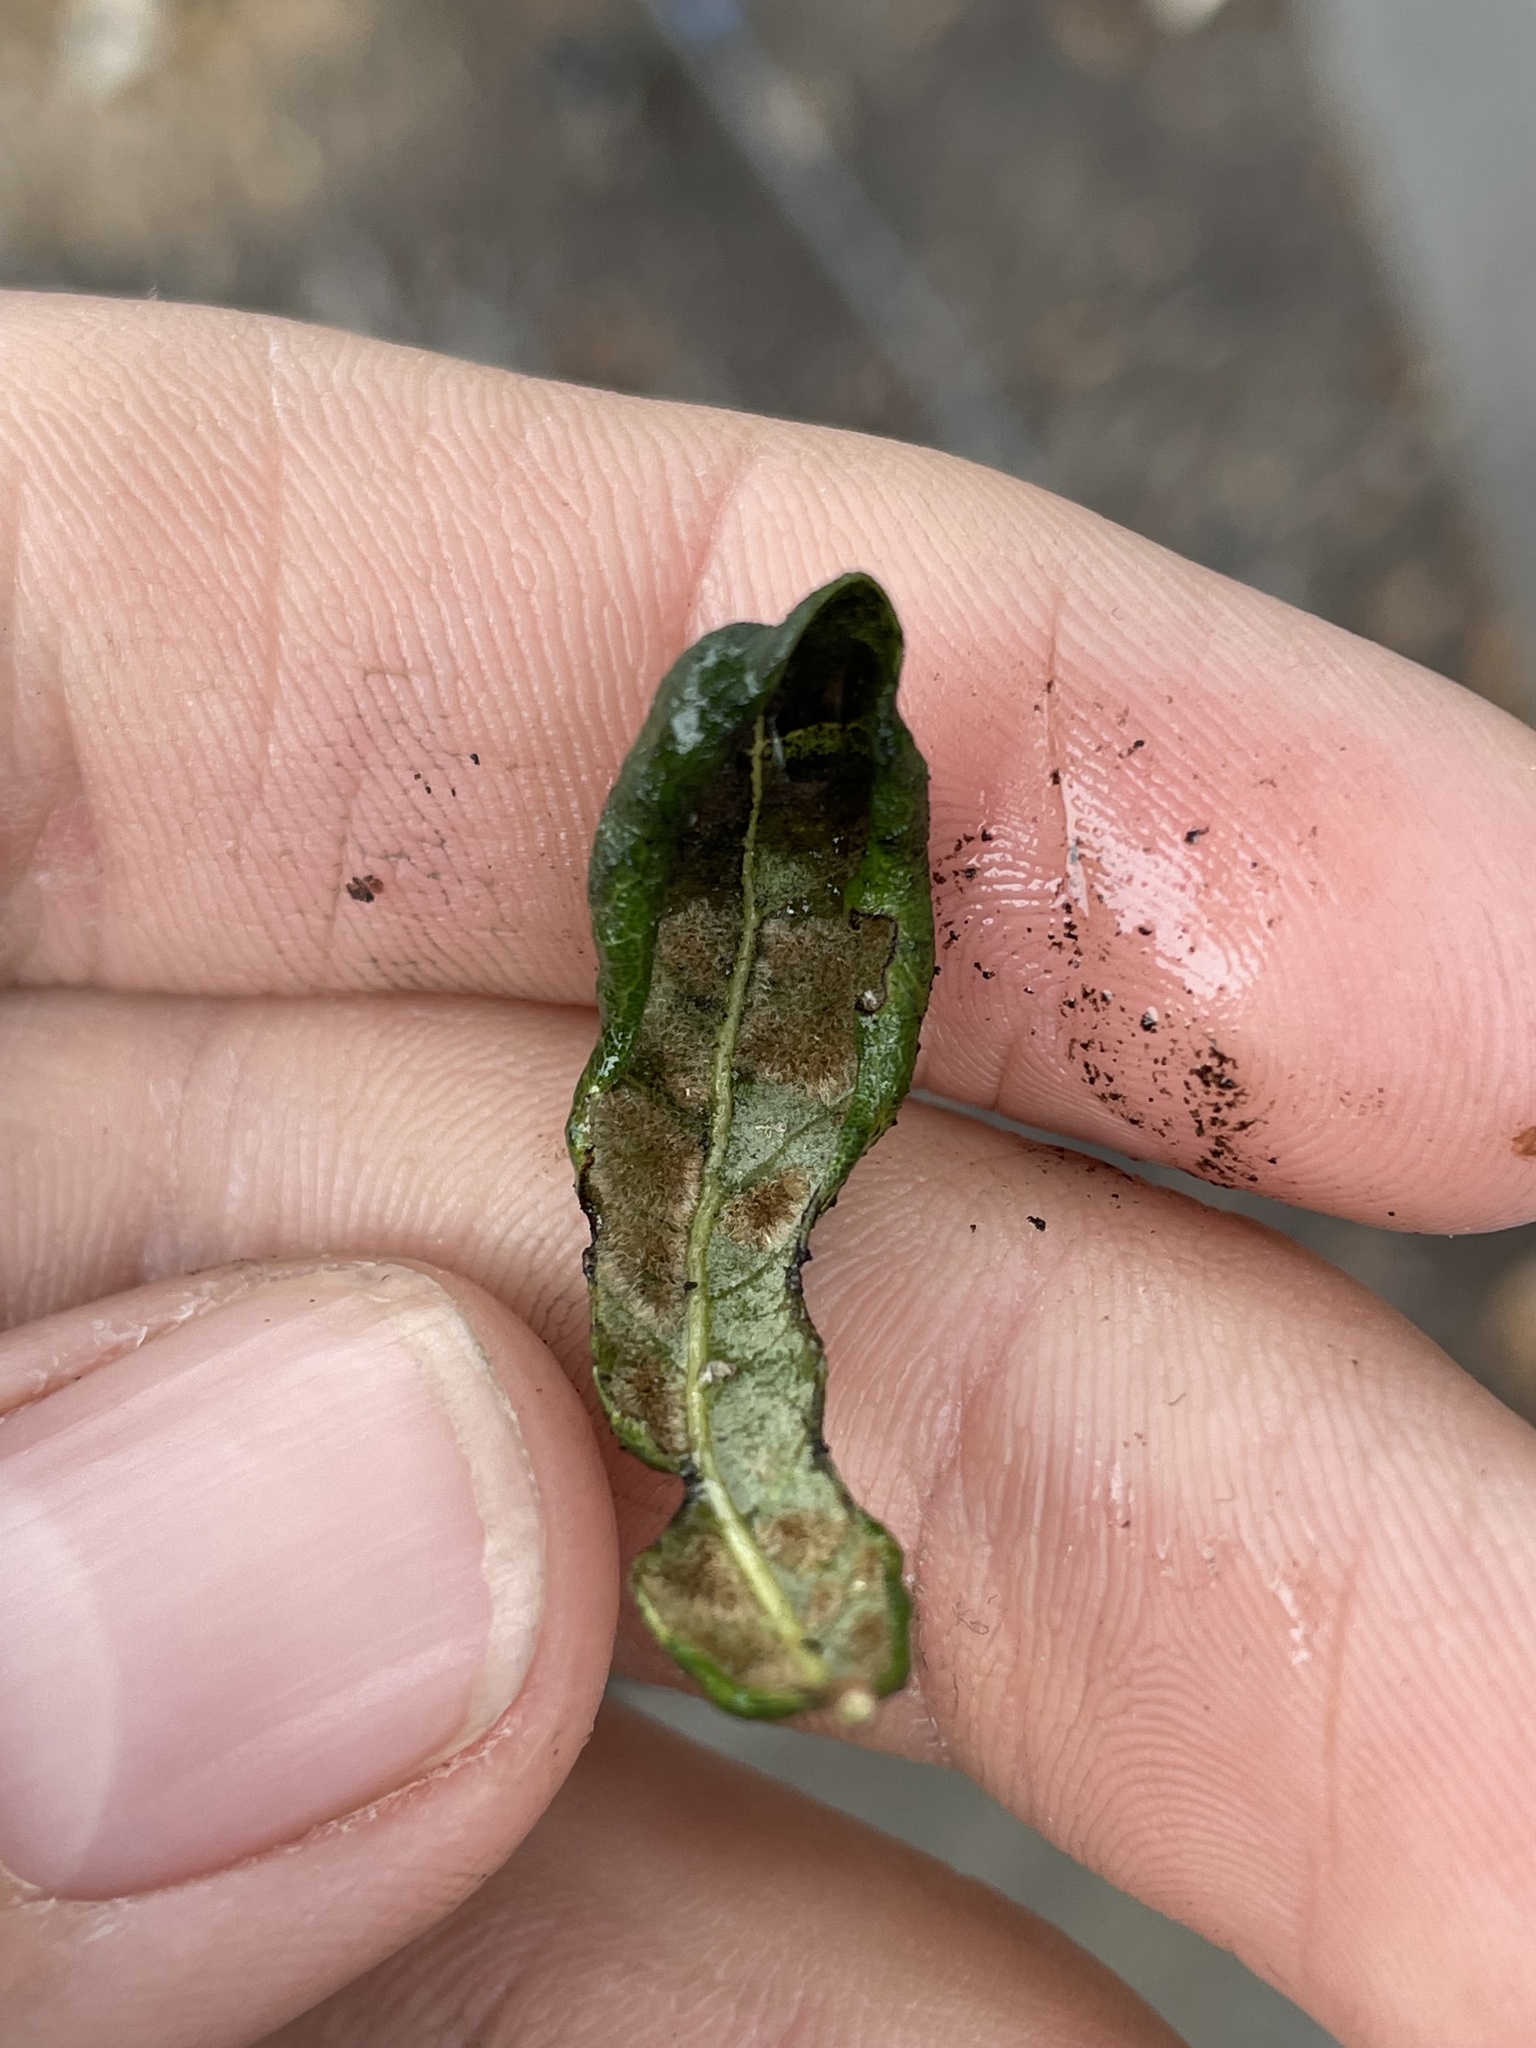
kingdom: Animalia
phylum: Arthropoda
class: Arachnida
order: Trombidiformes
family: Eriophyidae
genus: Aceria
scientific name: Aceria quercina
